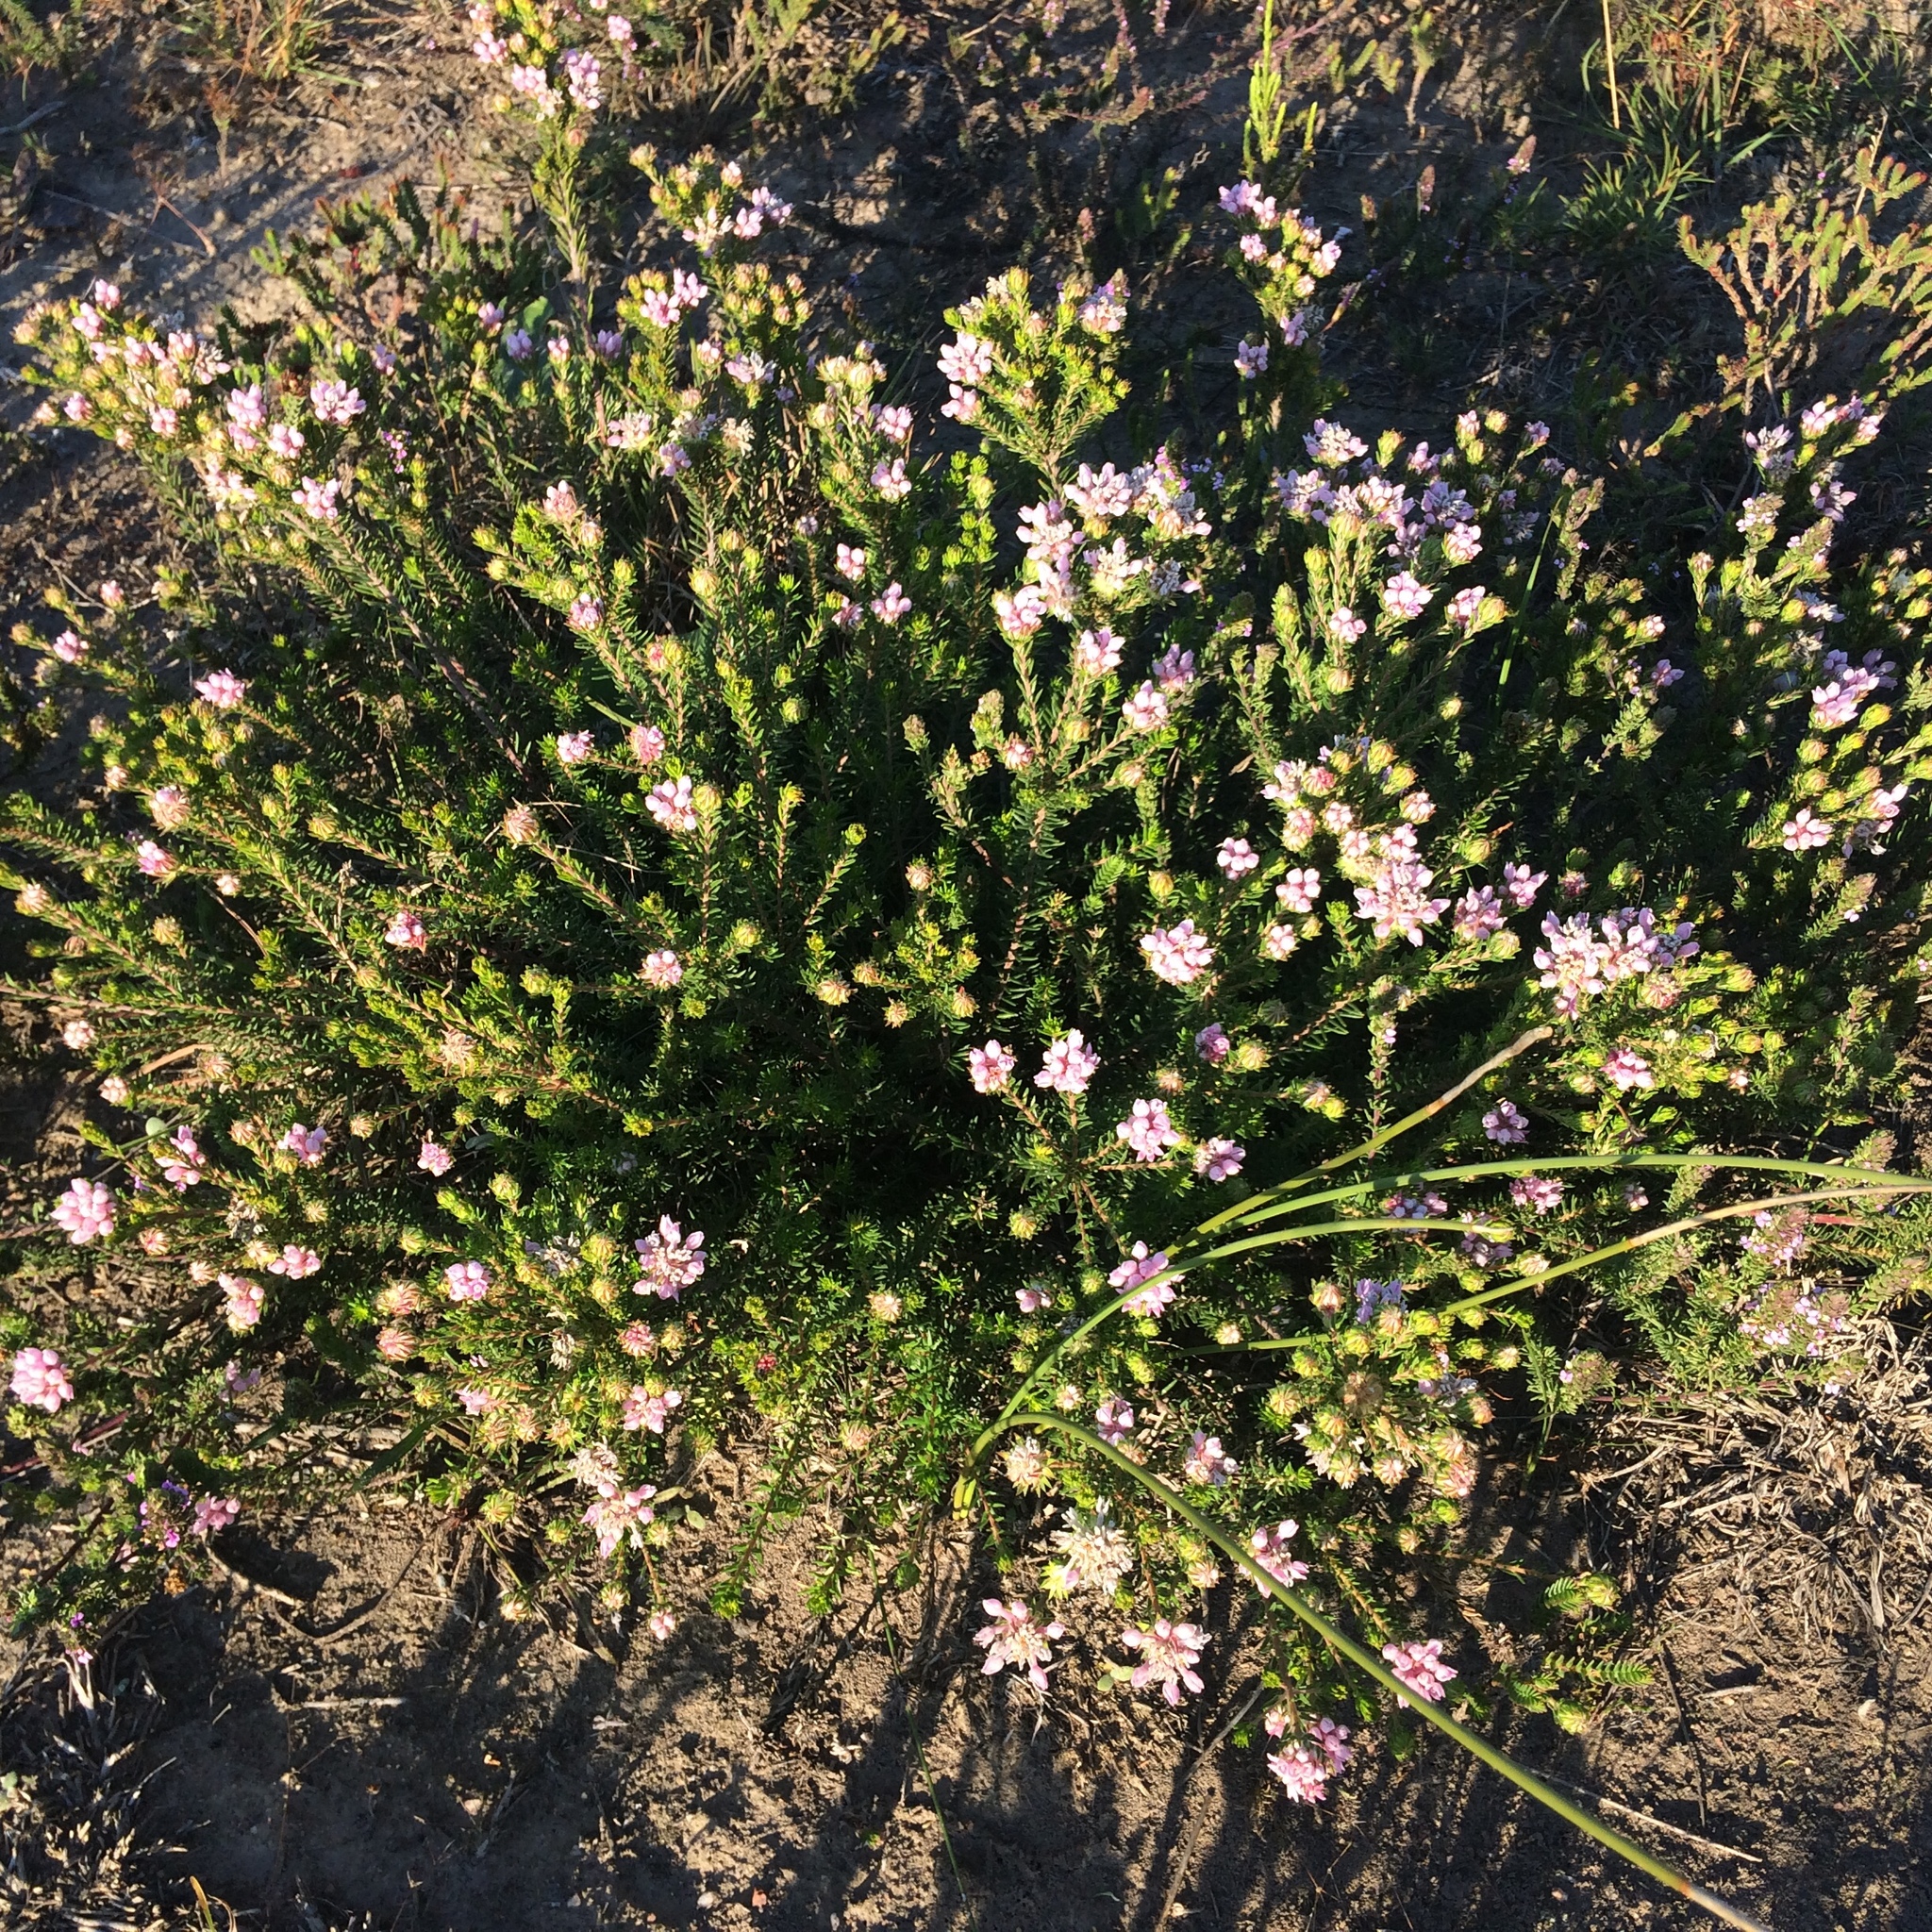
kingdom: Plantae
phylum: Tracheophyta
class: Magnoliopsida
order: Rosales
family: Rhamnaceae
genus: Phylica
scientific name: Phylica gnidioides
